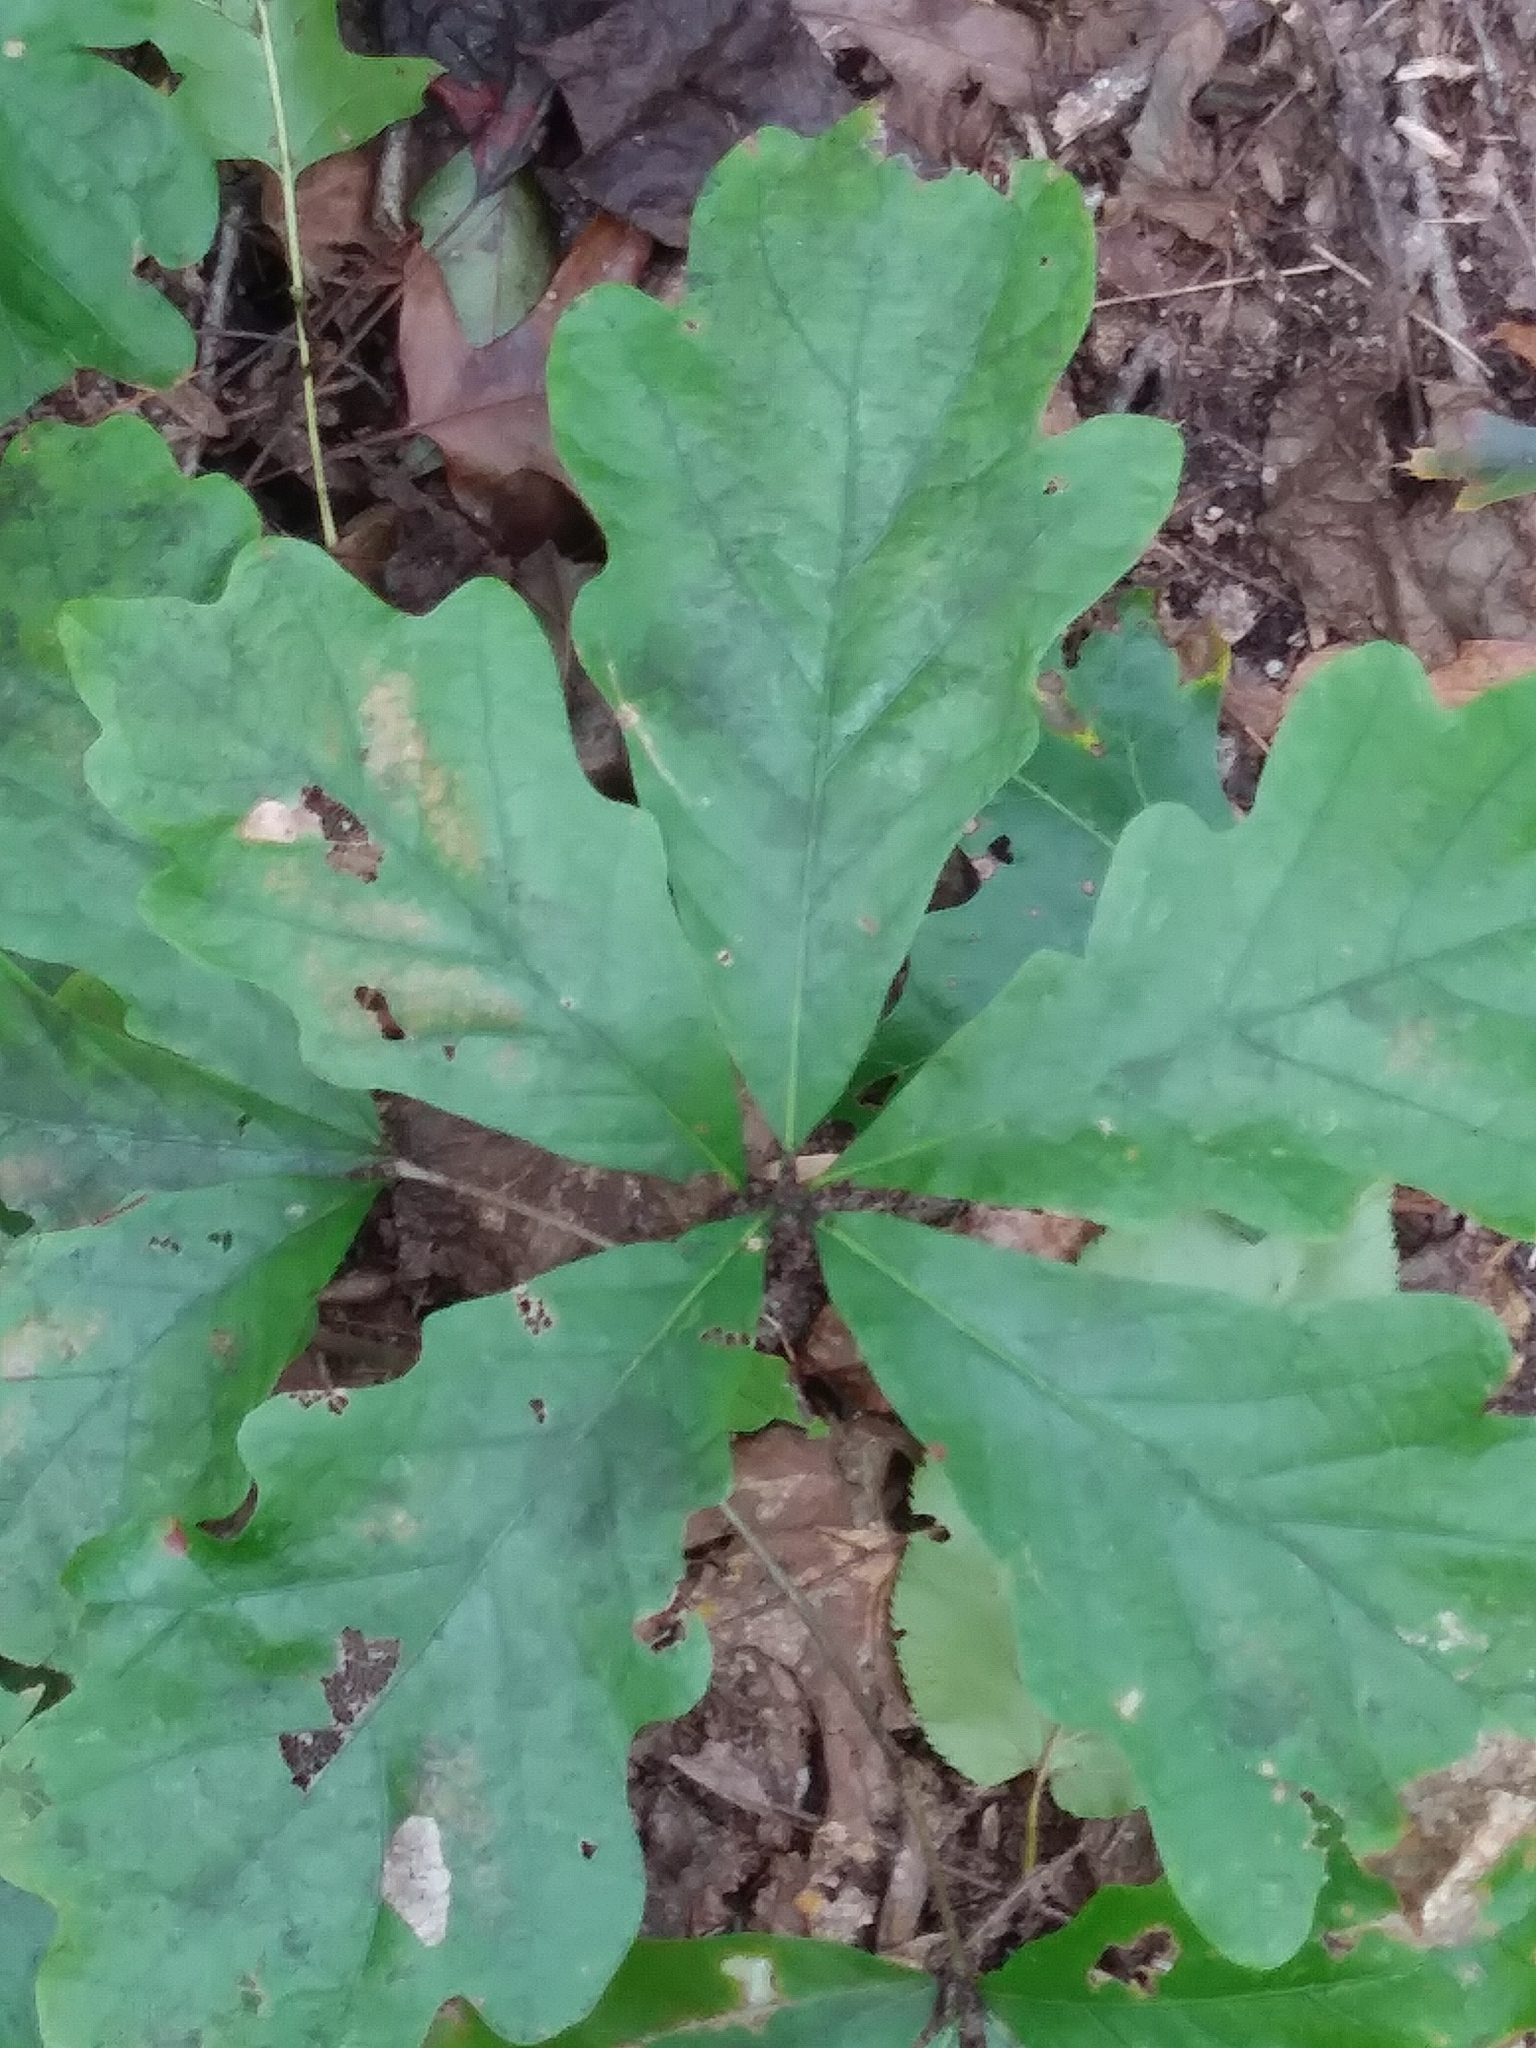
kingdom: Plantae
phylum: Tracheophyta
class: Magnoliopsida
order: Fagales
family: Fagaceae
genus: Quercus
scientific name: Quercus alba
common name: White oak
